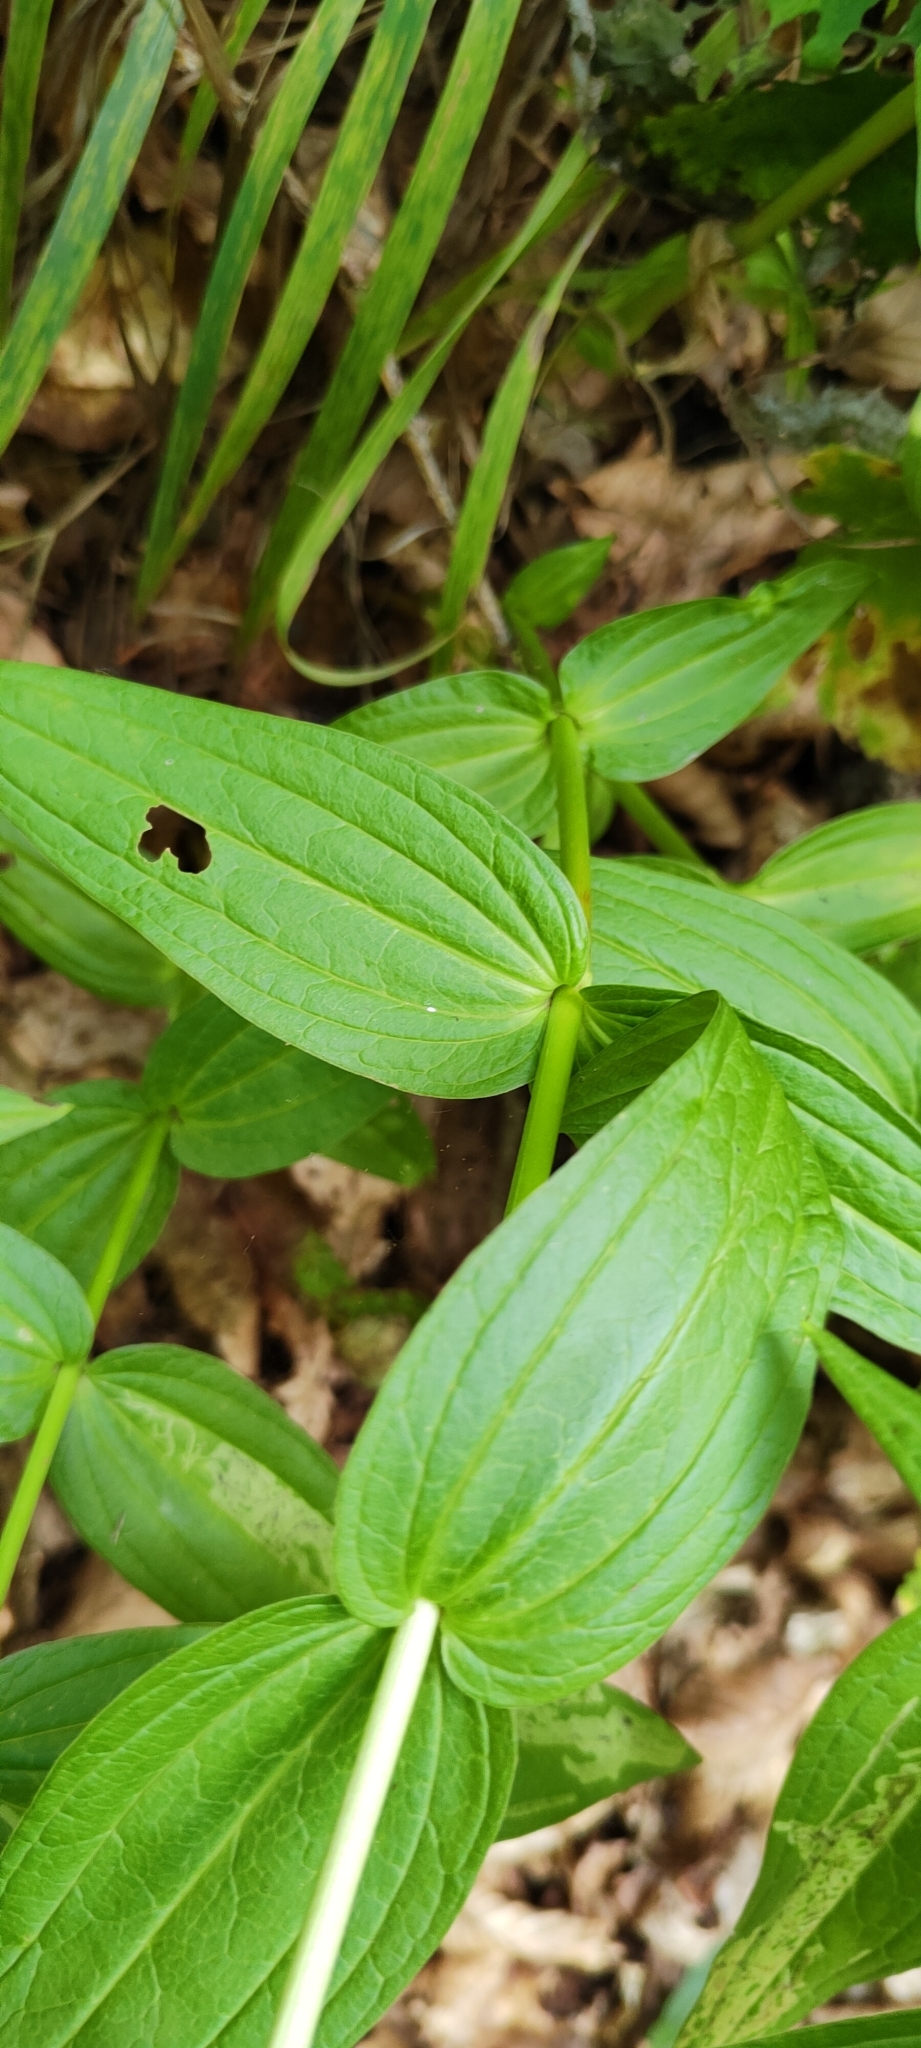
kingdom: Plantae
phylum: Tracheophyta
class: Magnoliopsida
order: Gentianales
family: Gentianaceae
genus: Gentiana
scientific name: Gentiana asclepiadea
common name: Willow gentian
